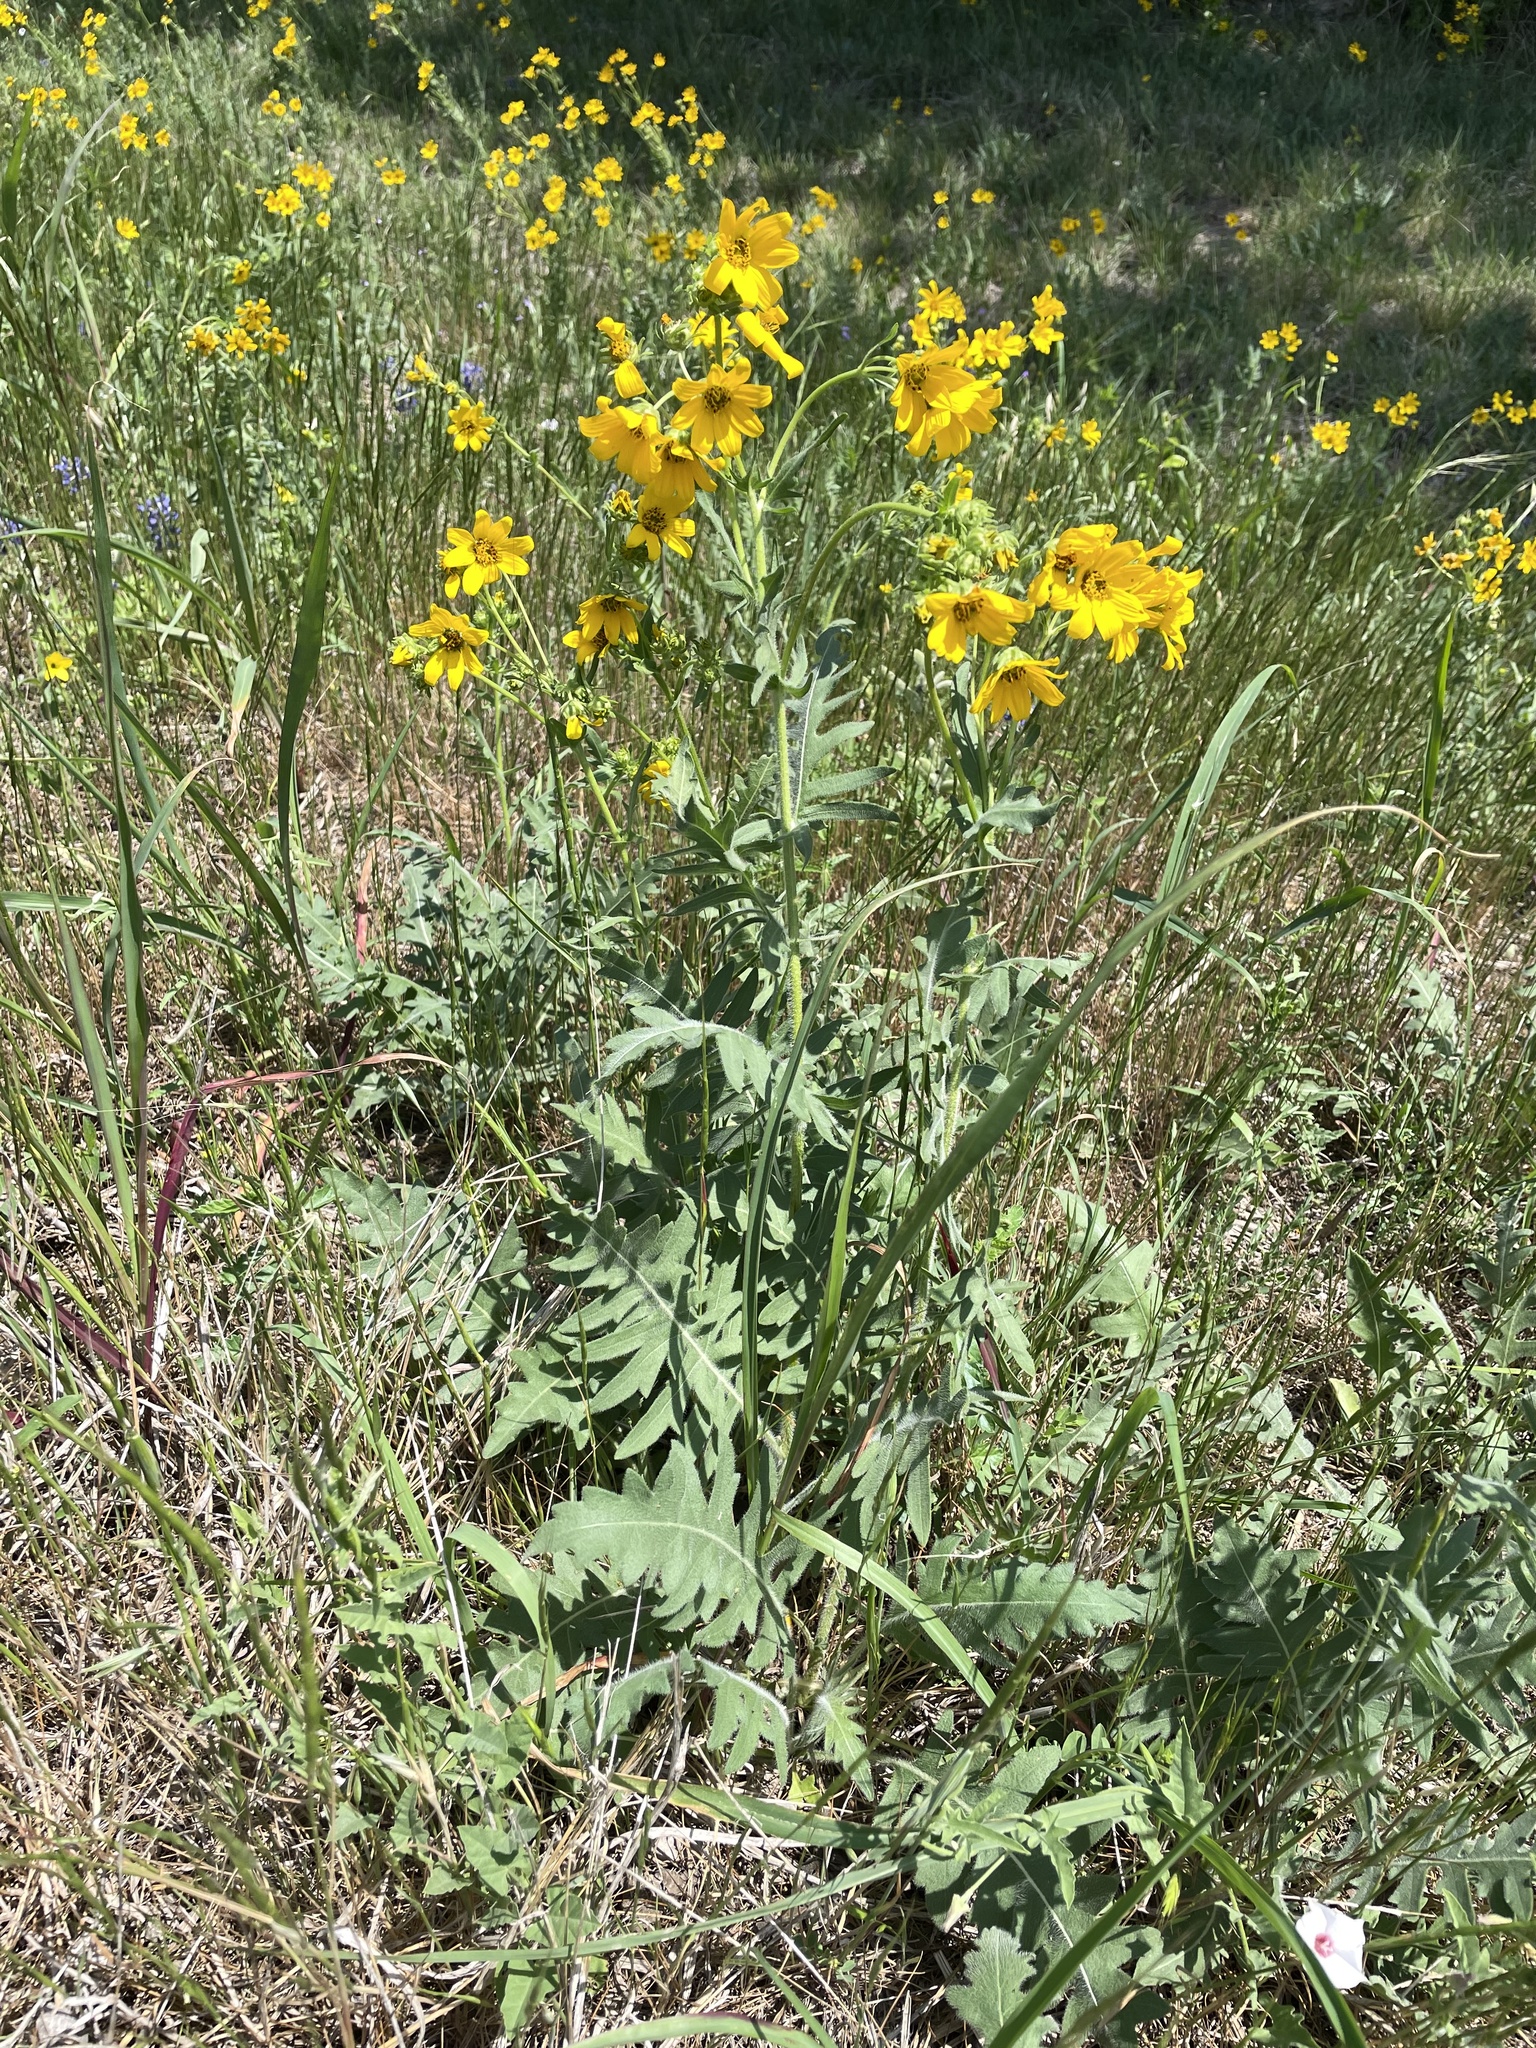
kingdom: Plantae
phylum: Tracheophyta
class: Magnoliopsida
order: Asterales
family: Asteraceae
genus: Engelmannia
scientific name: Engelmannia peristenia
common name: Engelmann's daisy
